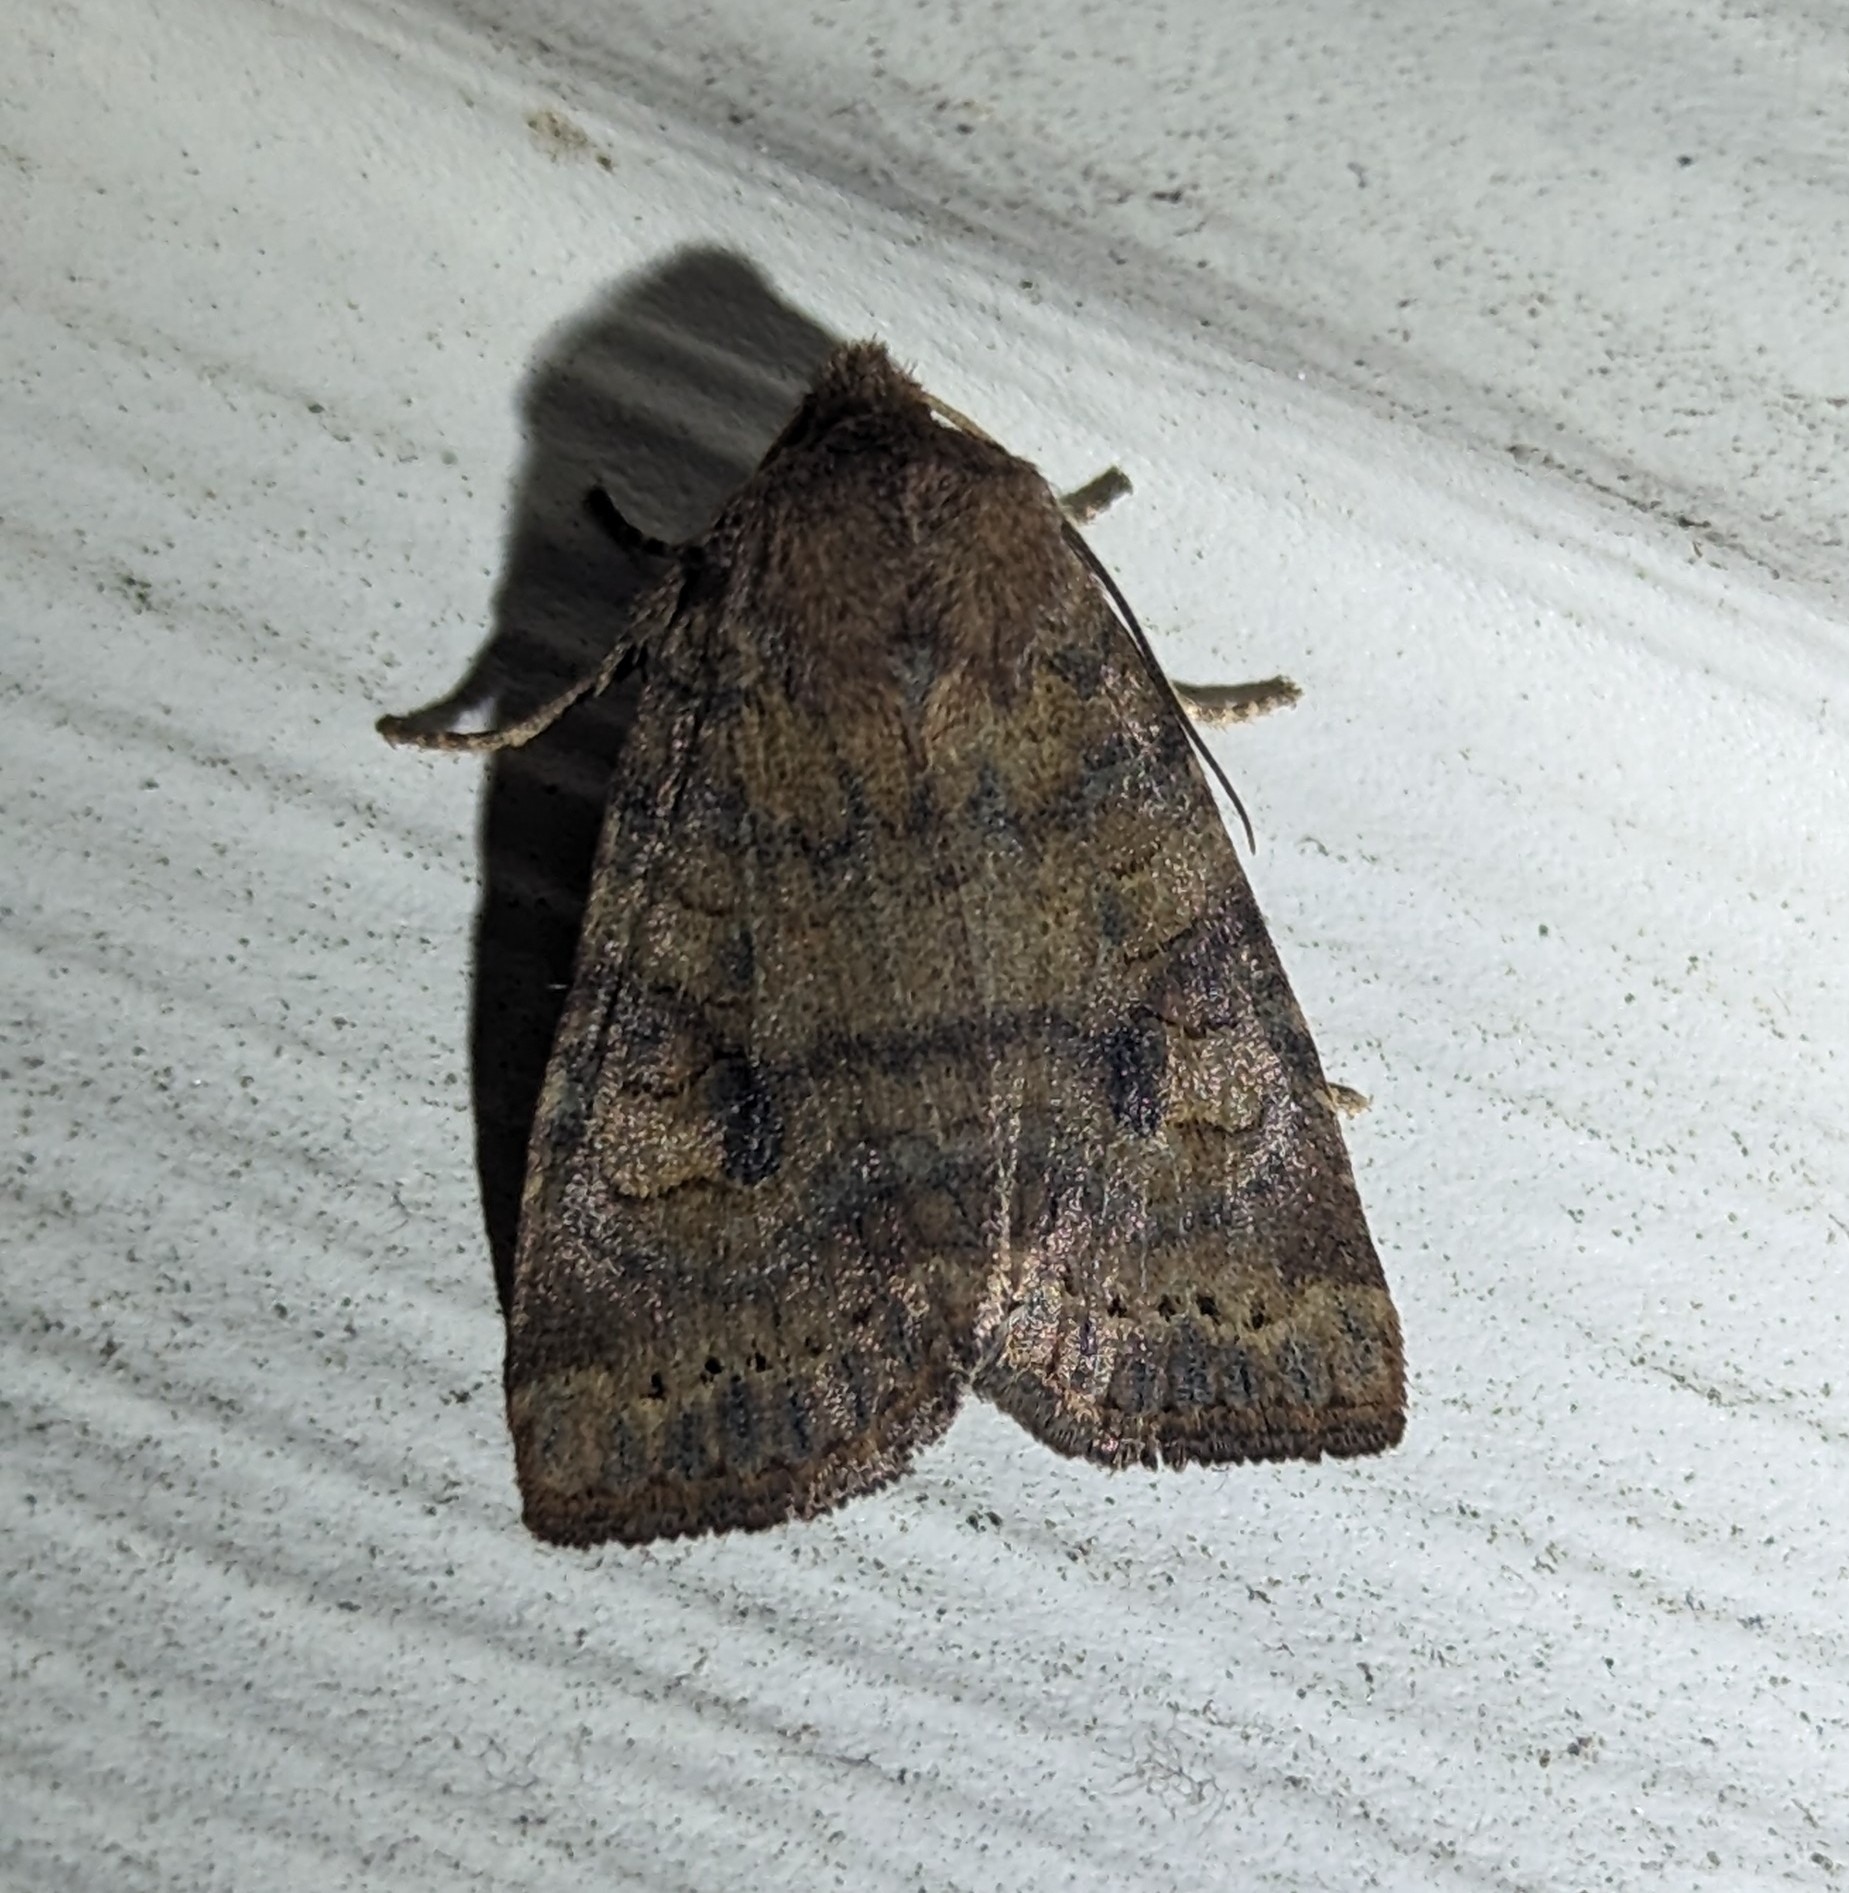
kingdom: Animalia
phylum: Arthropoda
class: Insecta
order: Lepidoptera
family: Noctuidae
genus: Anathix
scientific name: Anathix puta
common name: Puta sallow
